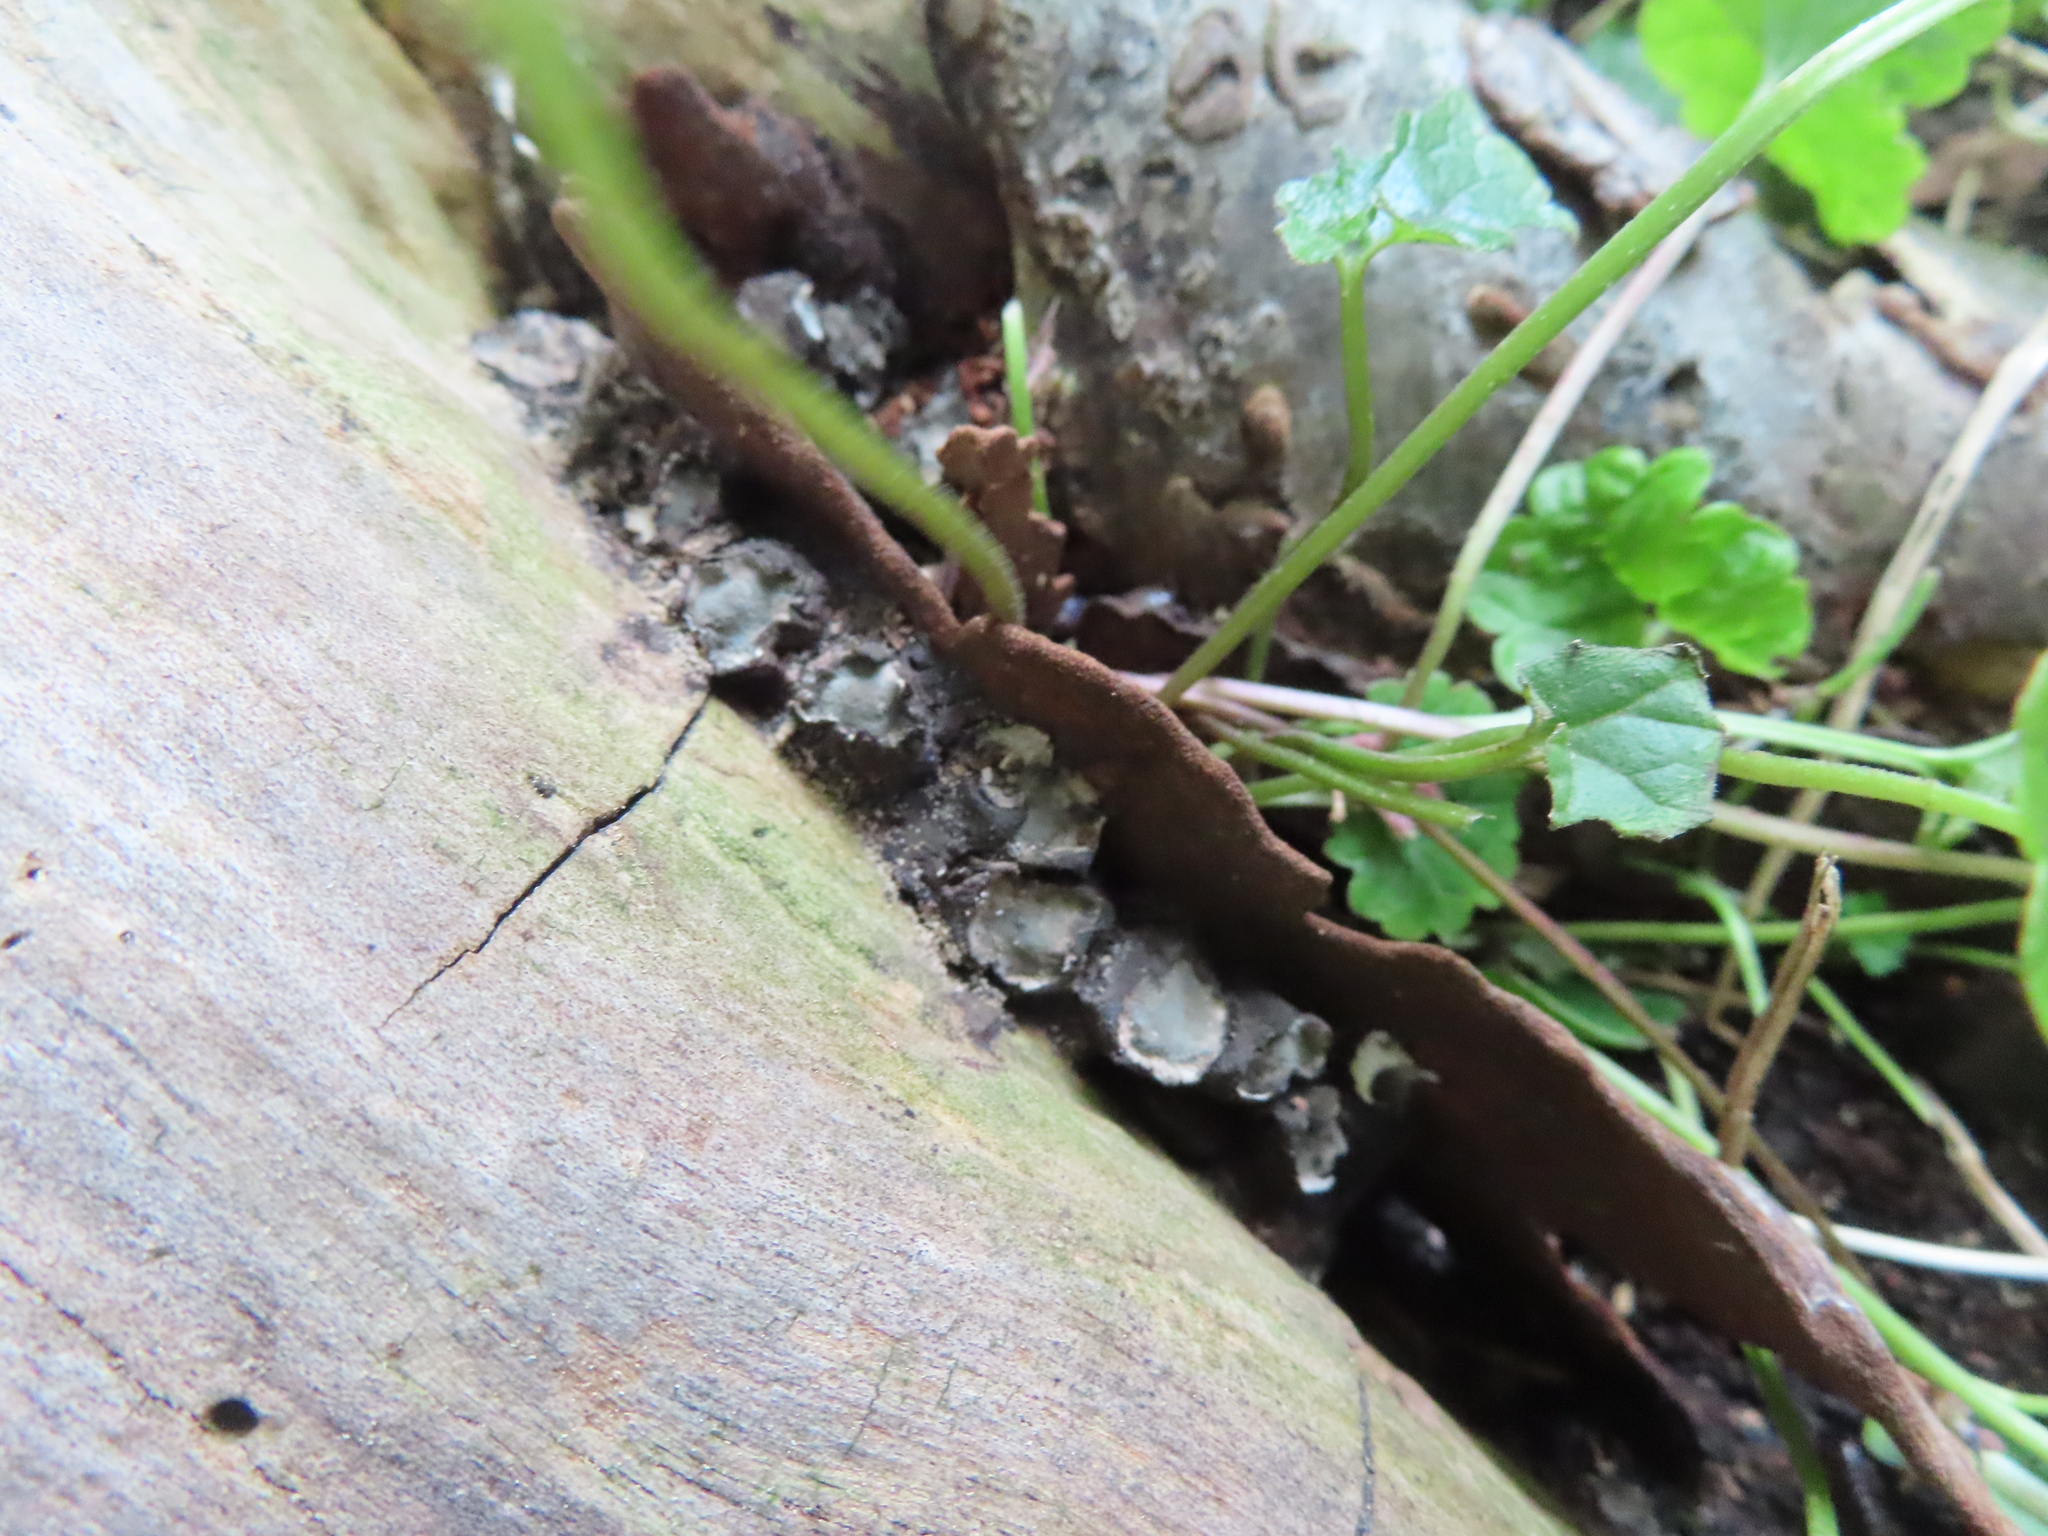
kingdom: Fungi
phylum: Ascomycota
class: Sordariomycetes
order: Xylariales
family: Xylariaceae
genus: Xylaria
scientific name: Xylaria polymorpha
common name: Dead man's fingers
